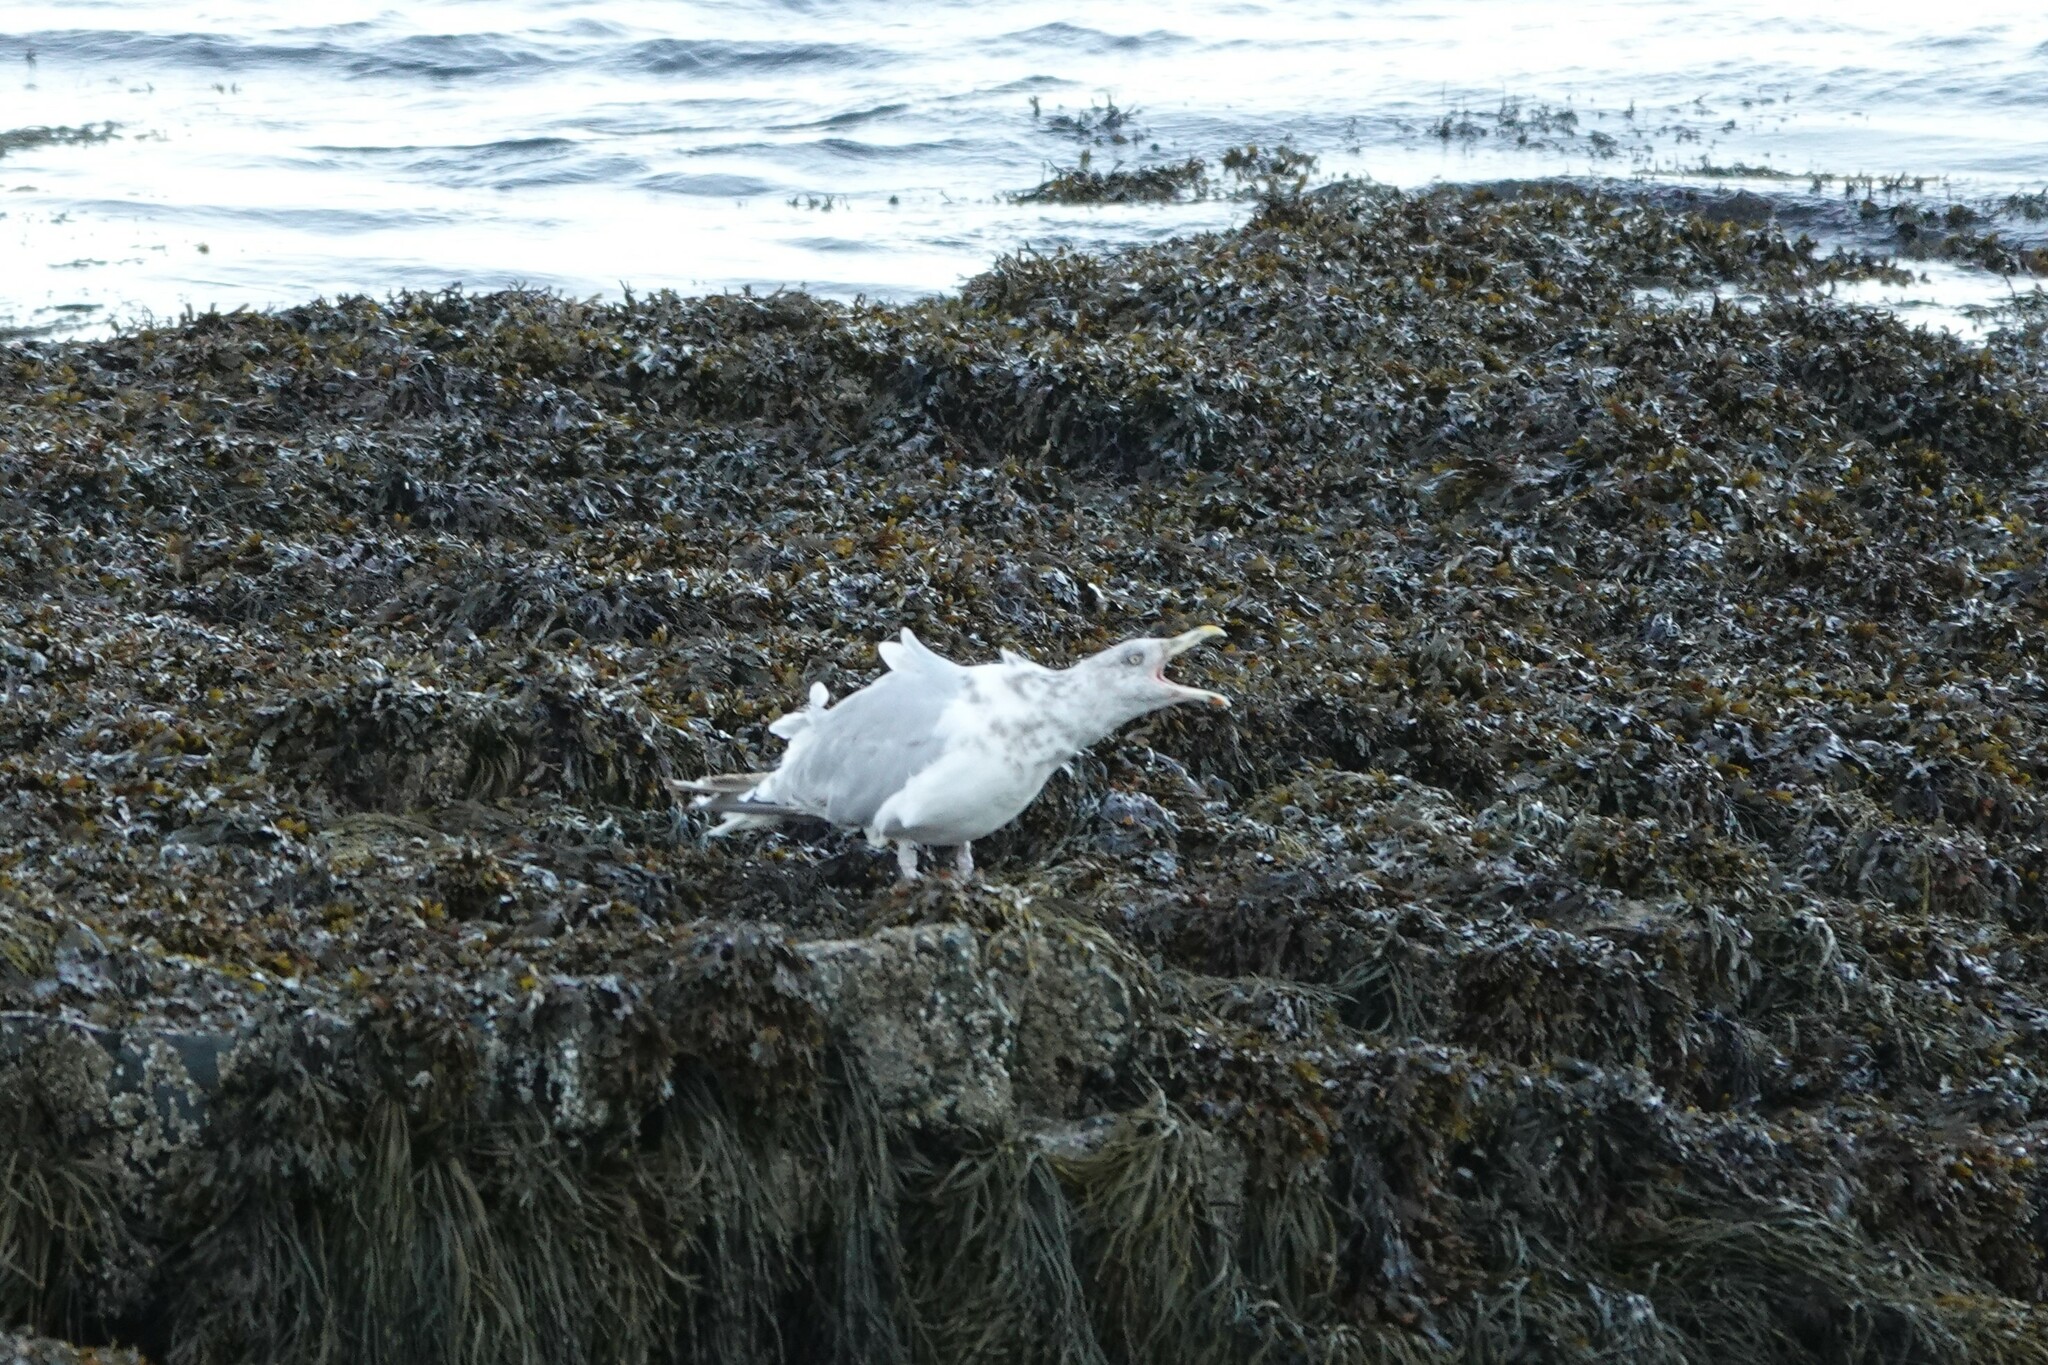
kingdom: Animalia
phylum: Chordata
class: Aves
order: Charadriiformes
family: Laridae
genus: Larus
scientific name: Larus argentatus
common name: Herring gull
